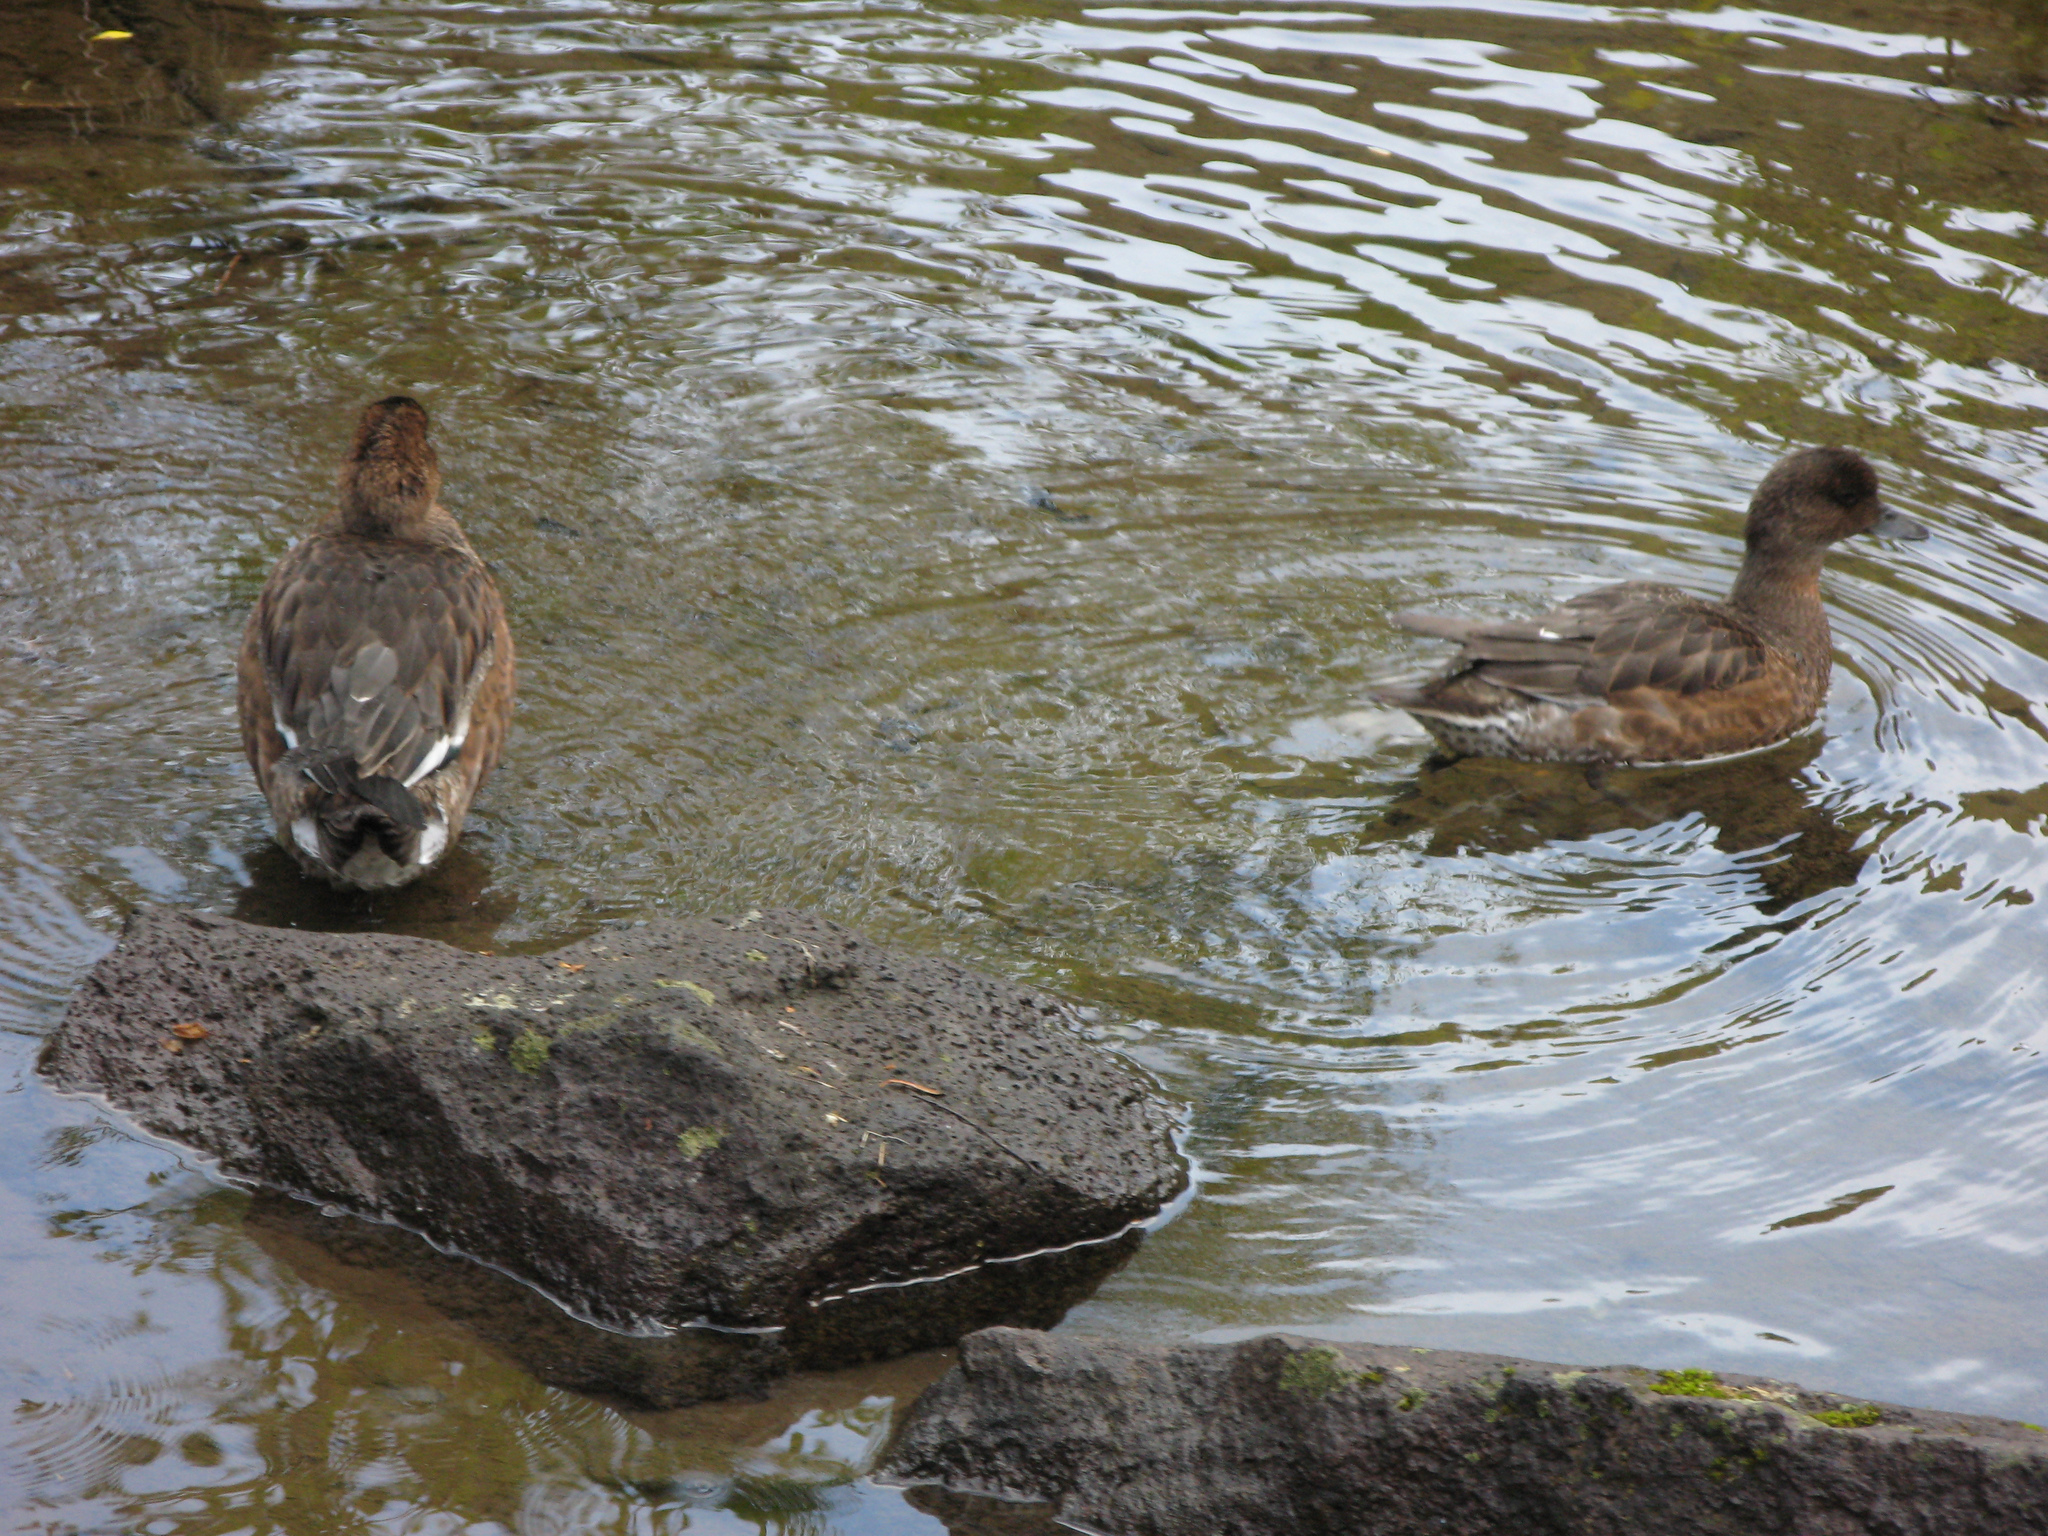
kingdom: Animalia
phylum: Chordata
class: Aves
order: Anseriformes
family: Anatidae
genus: Mareca
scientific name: Mareca penelope
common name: Eurasian wigeon
